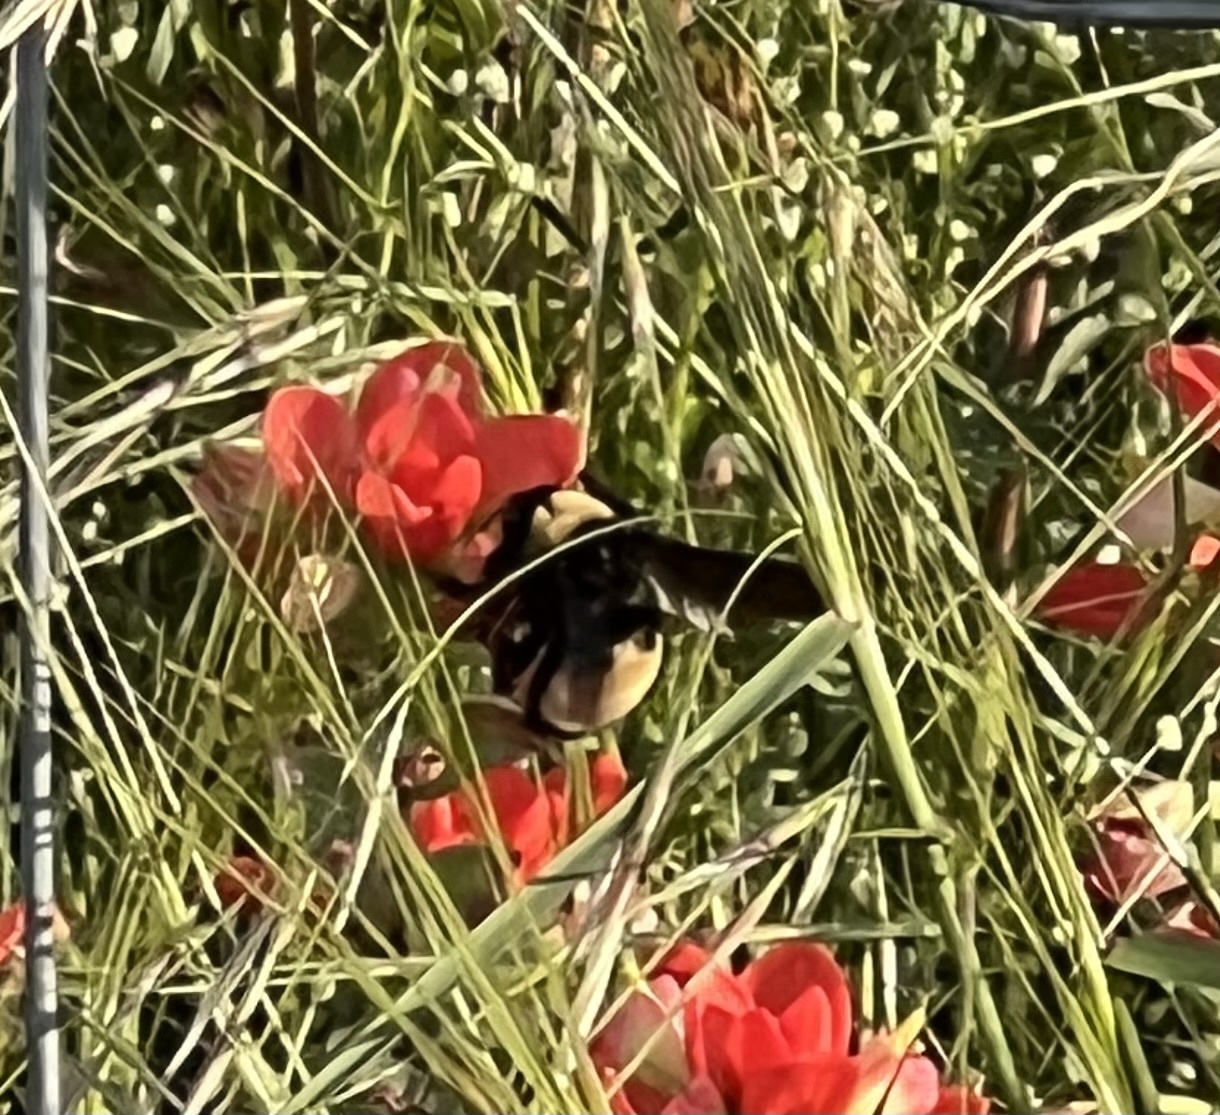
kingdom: Animalia
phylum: Arthropoda
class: Insecta
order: Hymenoptera
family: Apidae
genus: Bombus
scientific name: Bombus pensylvanicus
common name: Bumble bee
